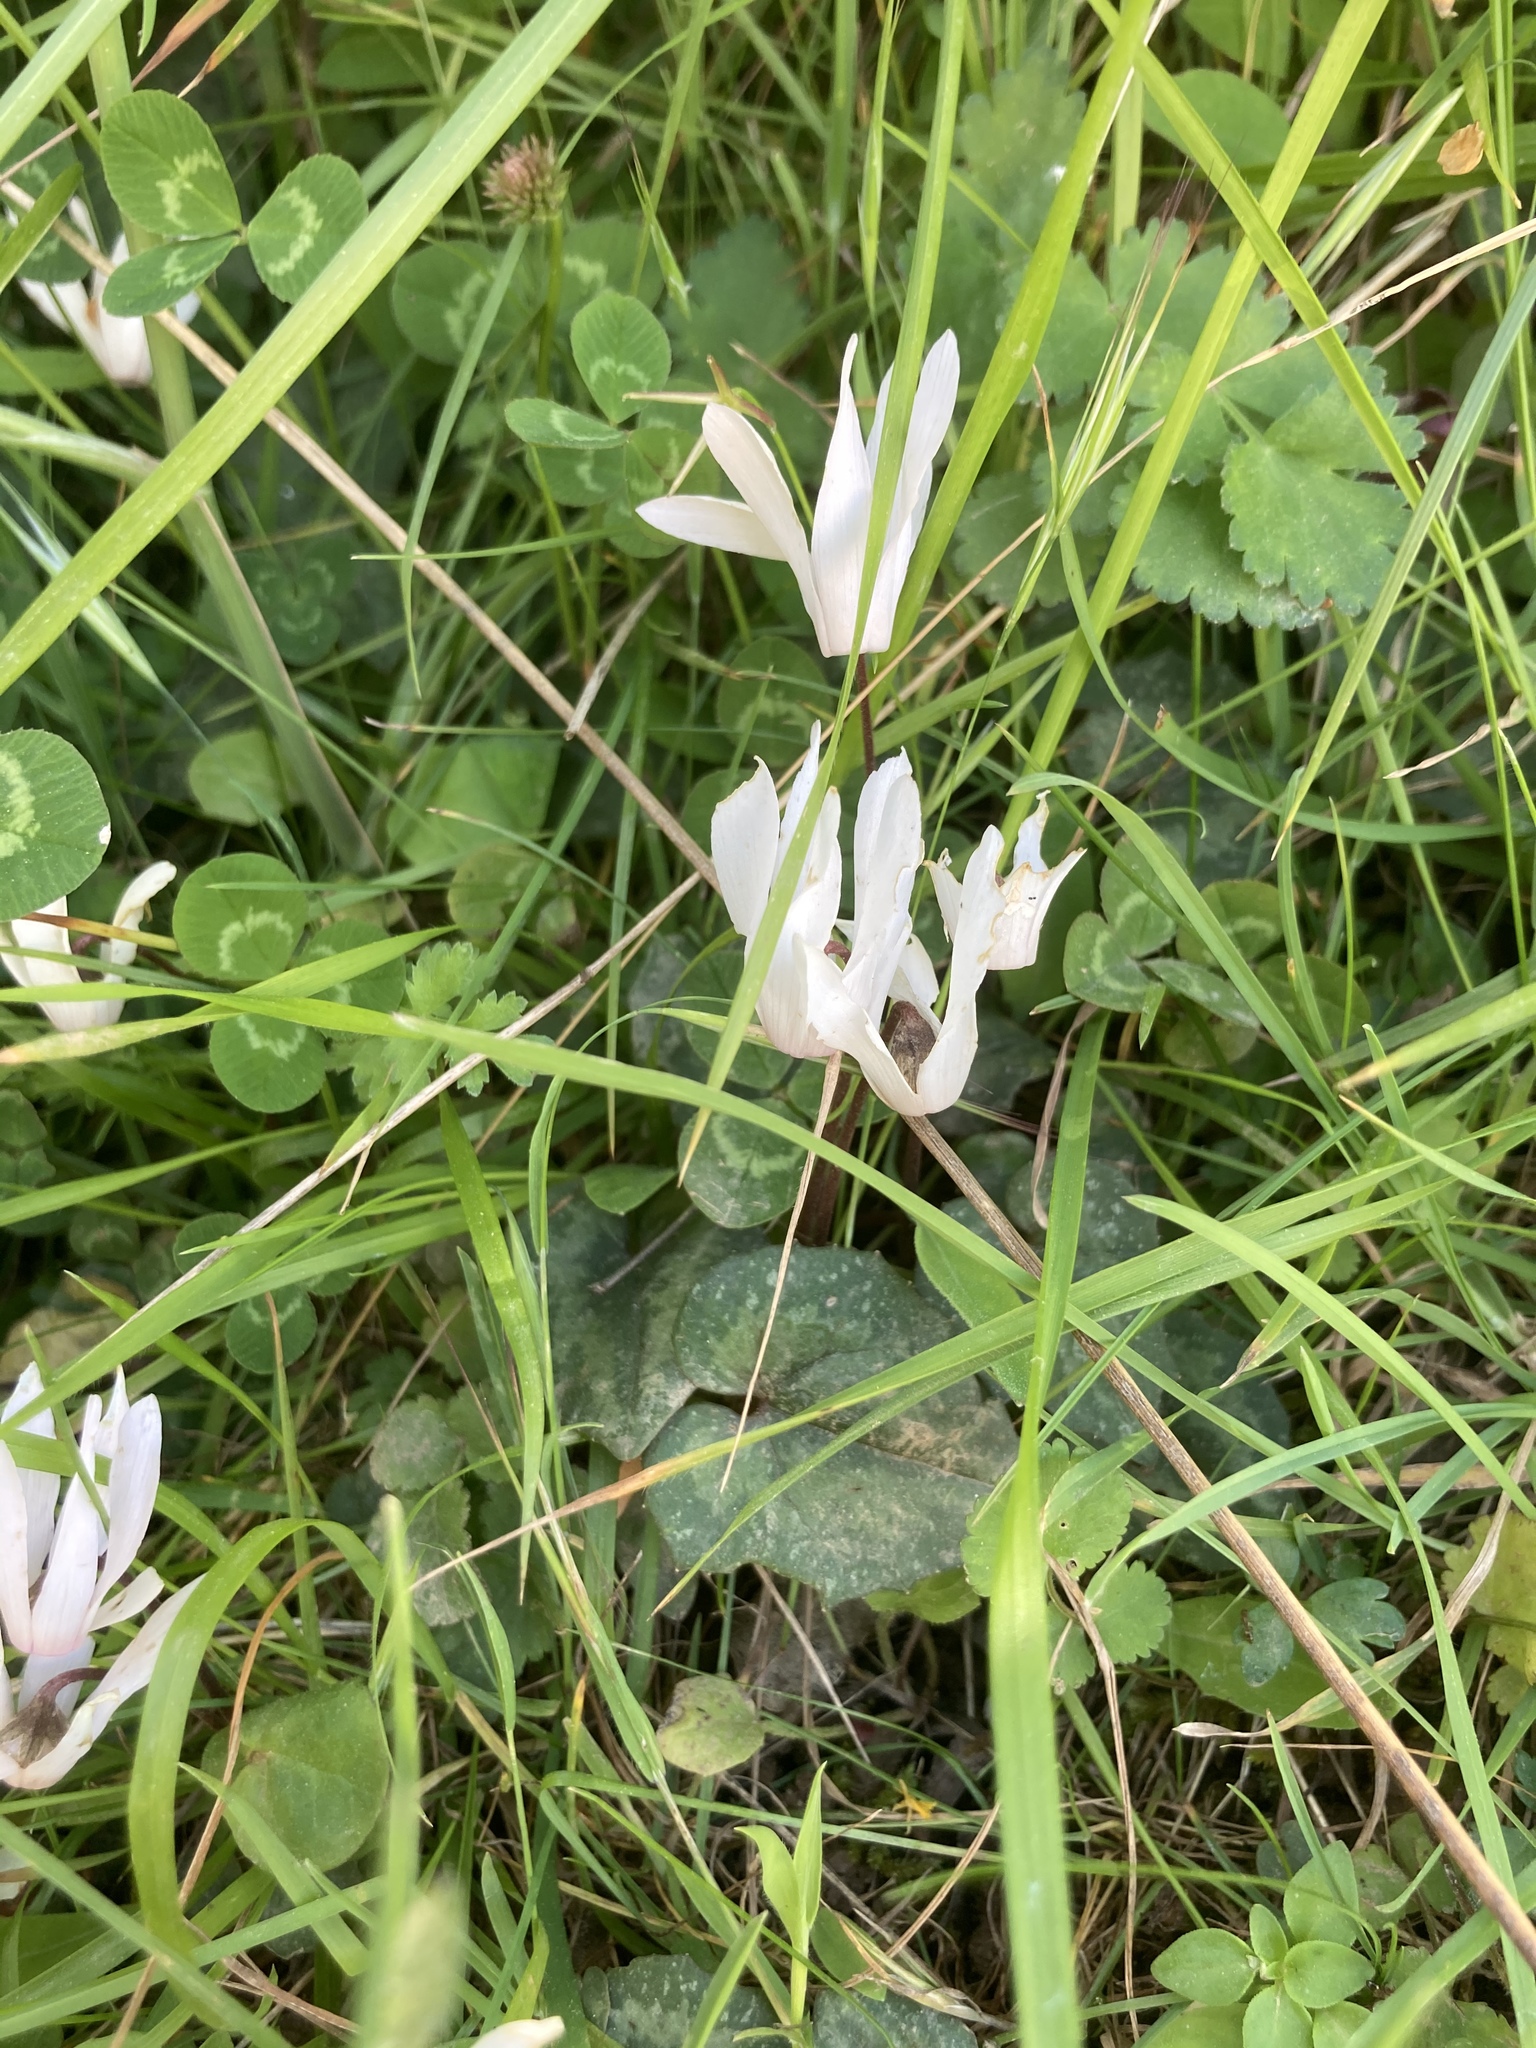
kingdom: Plantae
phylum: Tracheophyta
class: Magnoliopsida
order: Ericales
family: Primulaceae
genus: Cyclamen
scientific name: Cyclamen creticum
